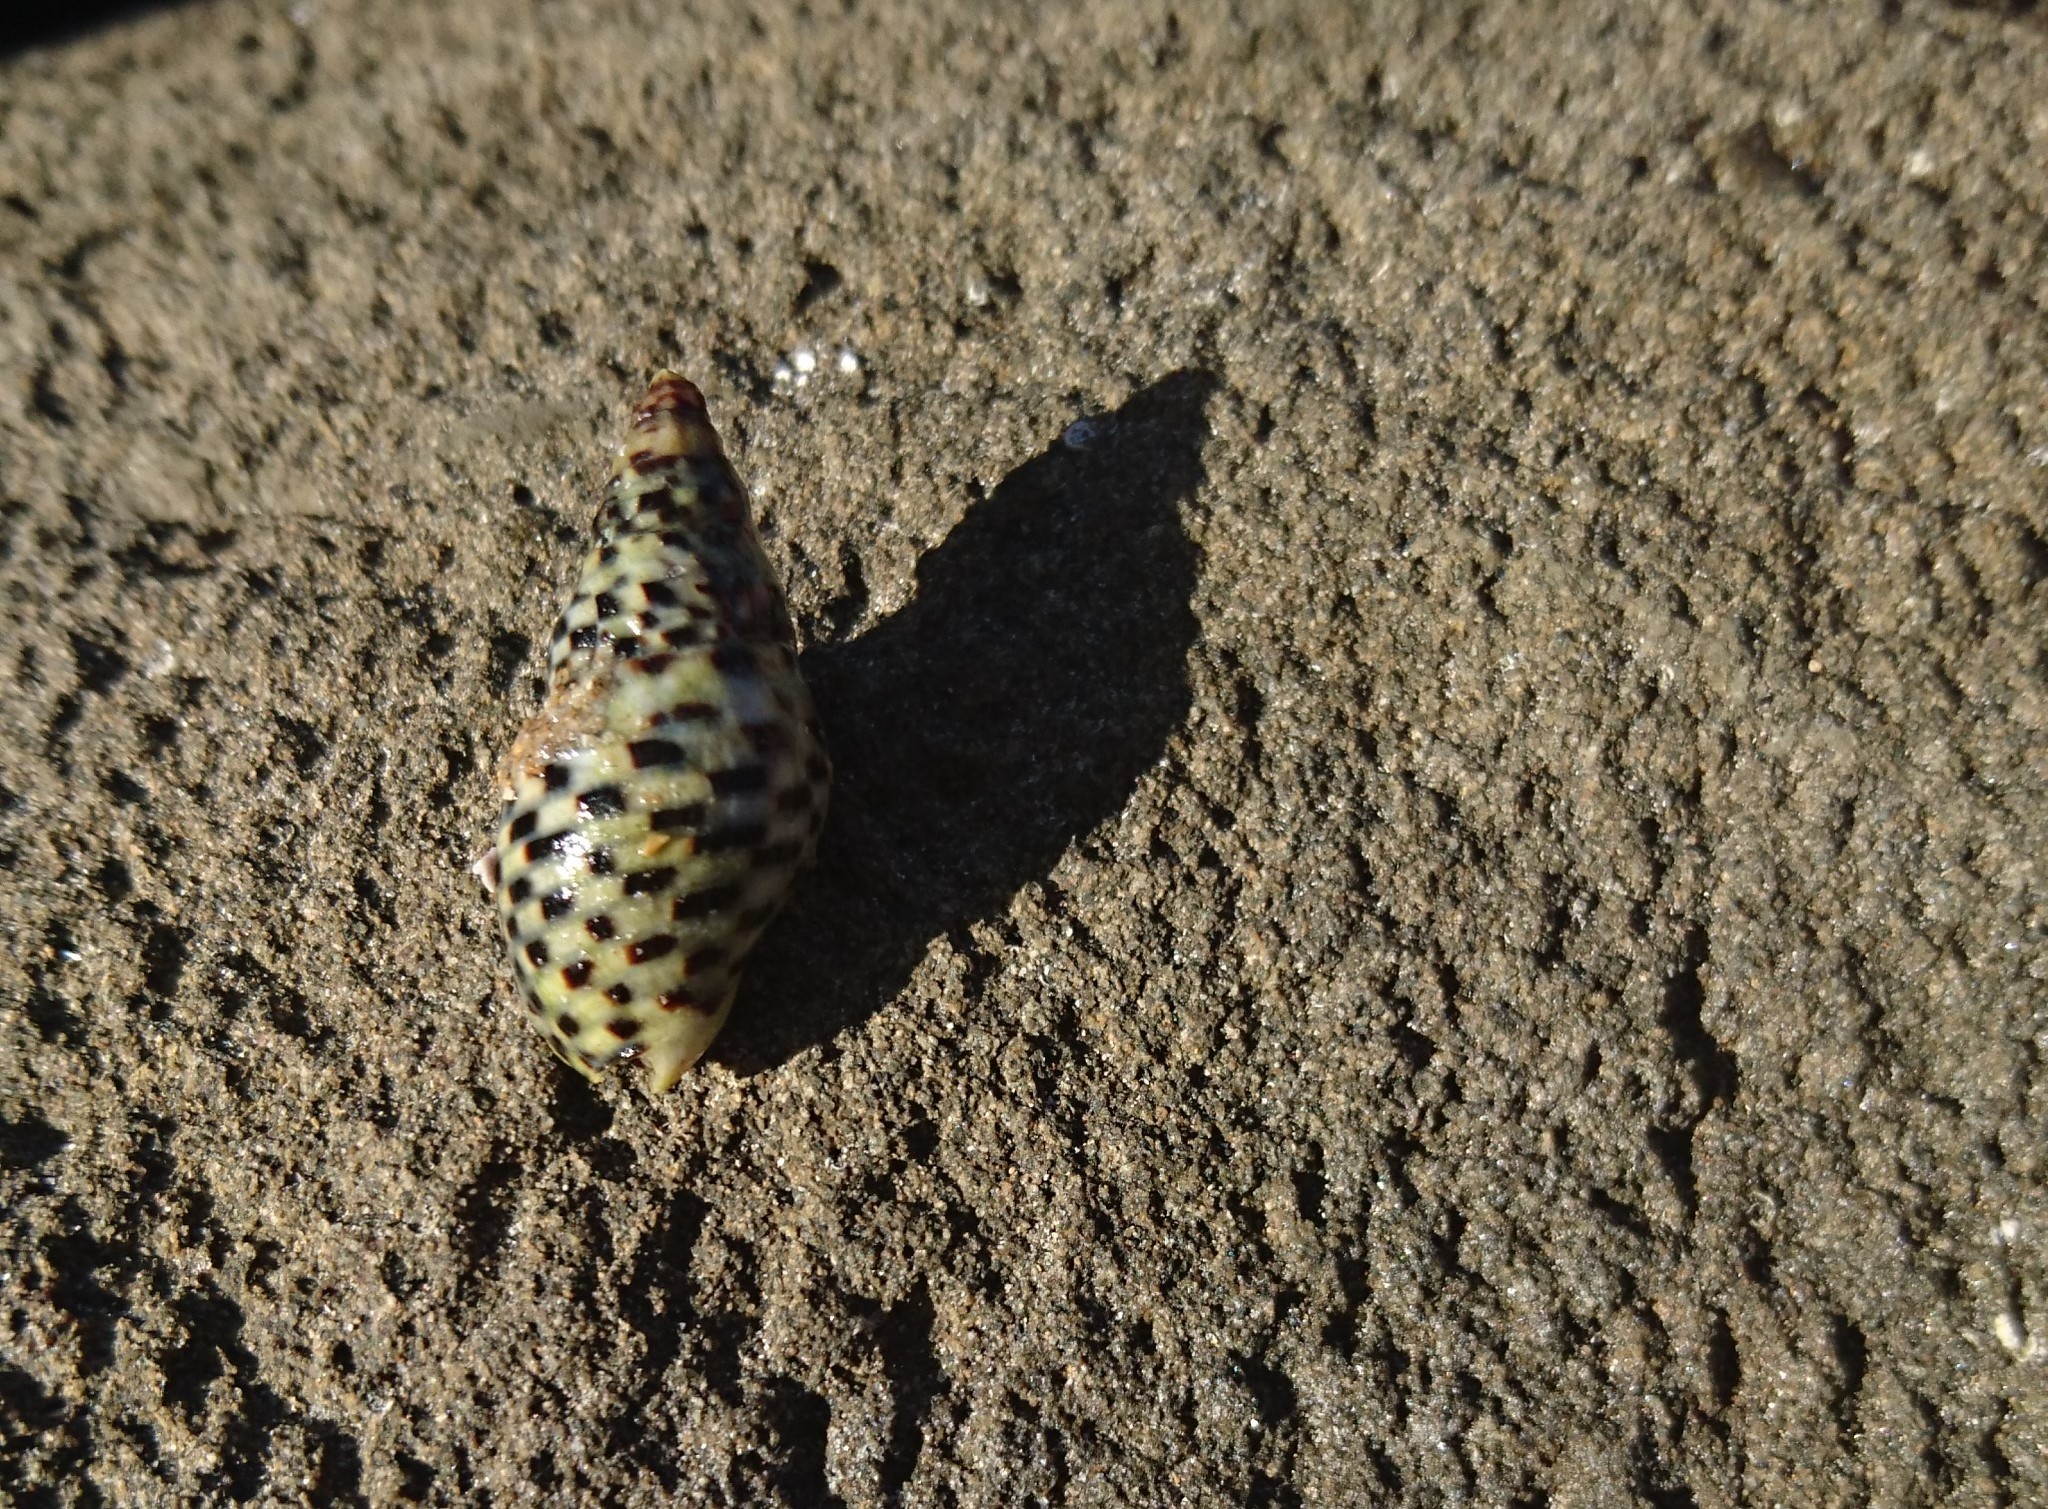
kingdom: Animalia
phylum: Mollusca
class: Gastropoda
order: Neogastropoda
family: Cominellidae
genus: Cominella
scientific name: Cominella lineolata
